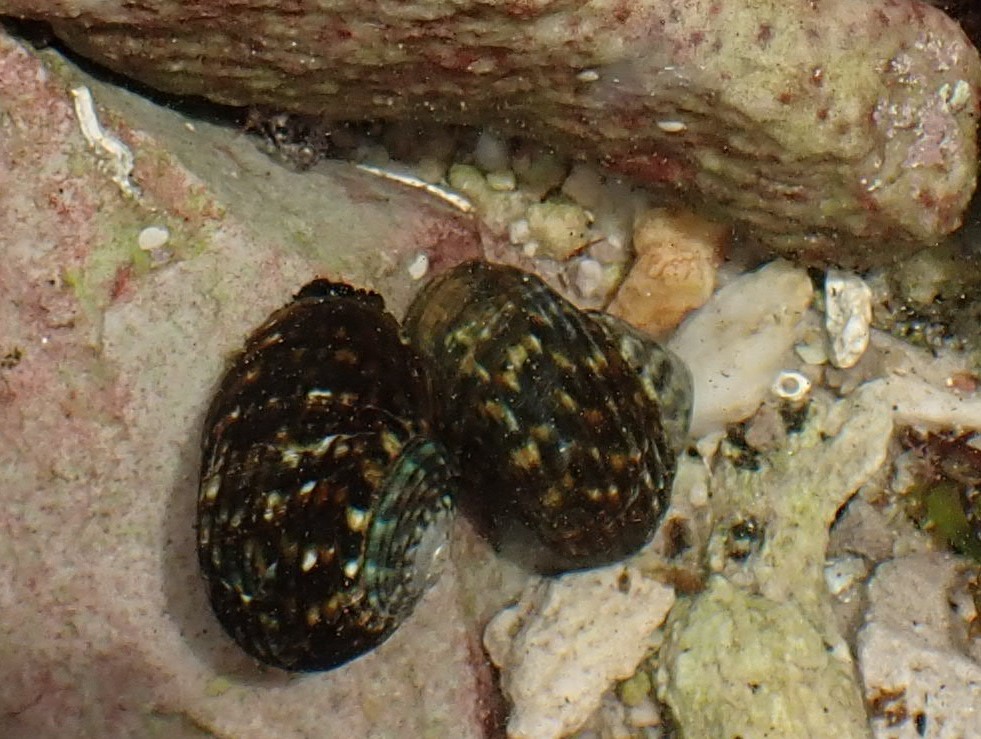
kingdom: Animalia
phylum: Mollusca
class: Gastropoda
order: Trochida
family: Turbinidae
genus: Lunella
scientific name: Lunella undulata
